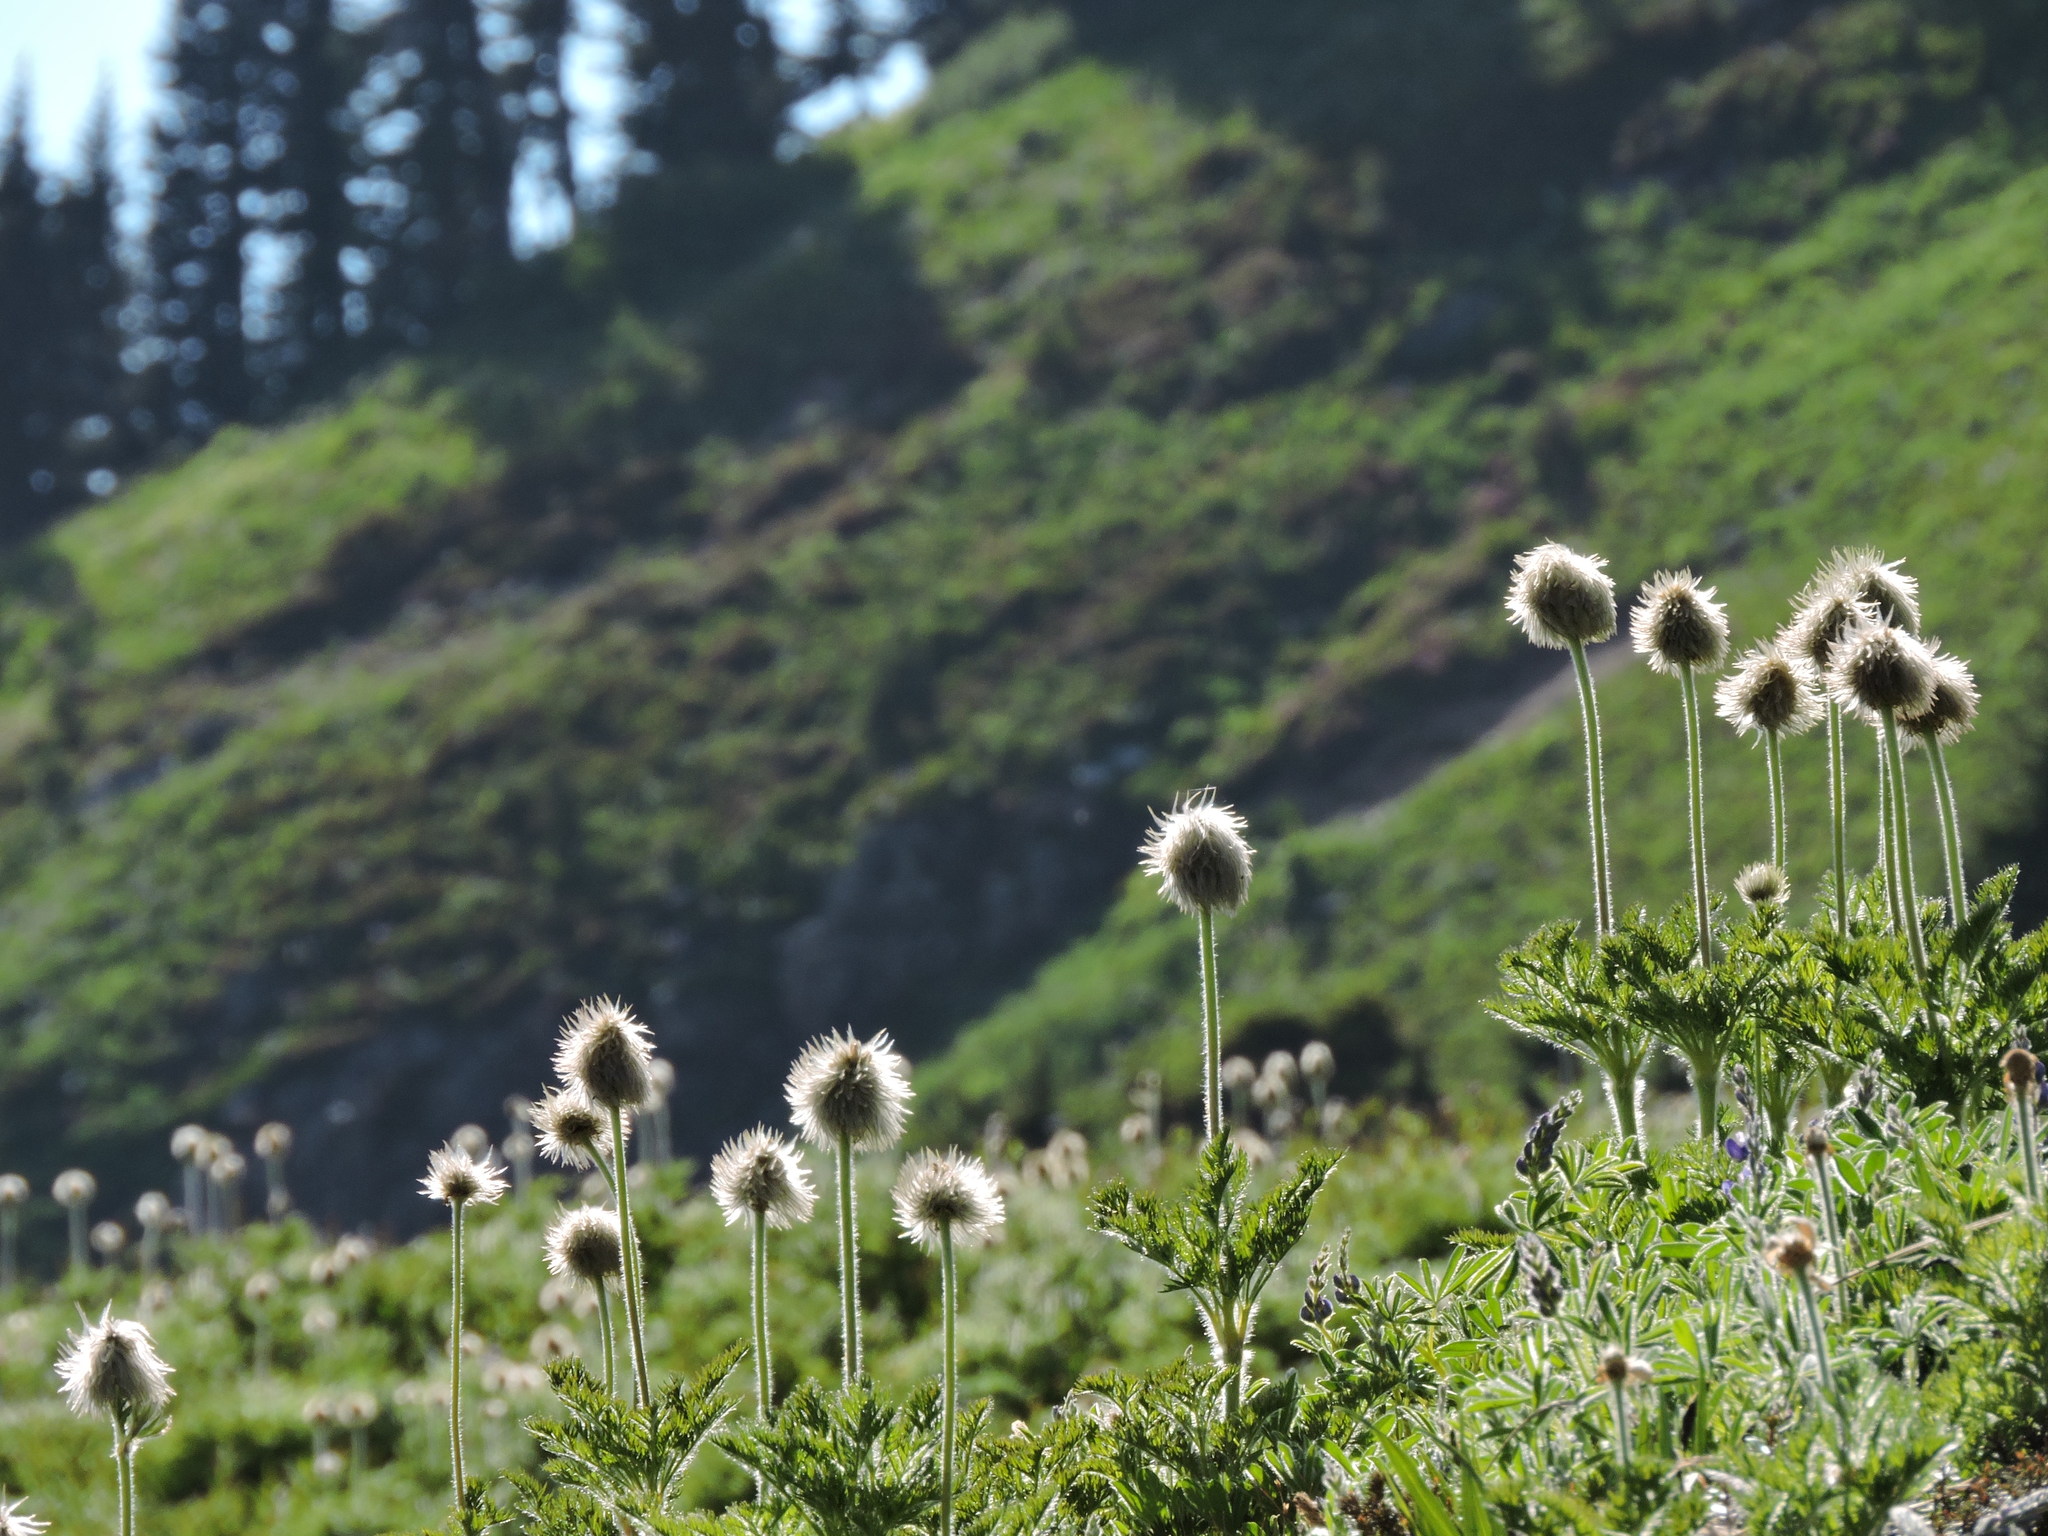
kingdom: Plantae
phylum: Tracheophyta
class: Magnoliopsida
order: Ranunculales
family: Ranunculaceae
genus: Pulsatilla
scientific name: Pulsatilla occidentalis
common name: Mountain pasqueflower
